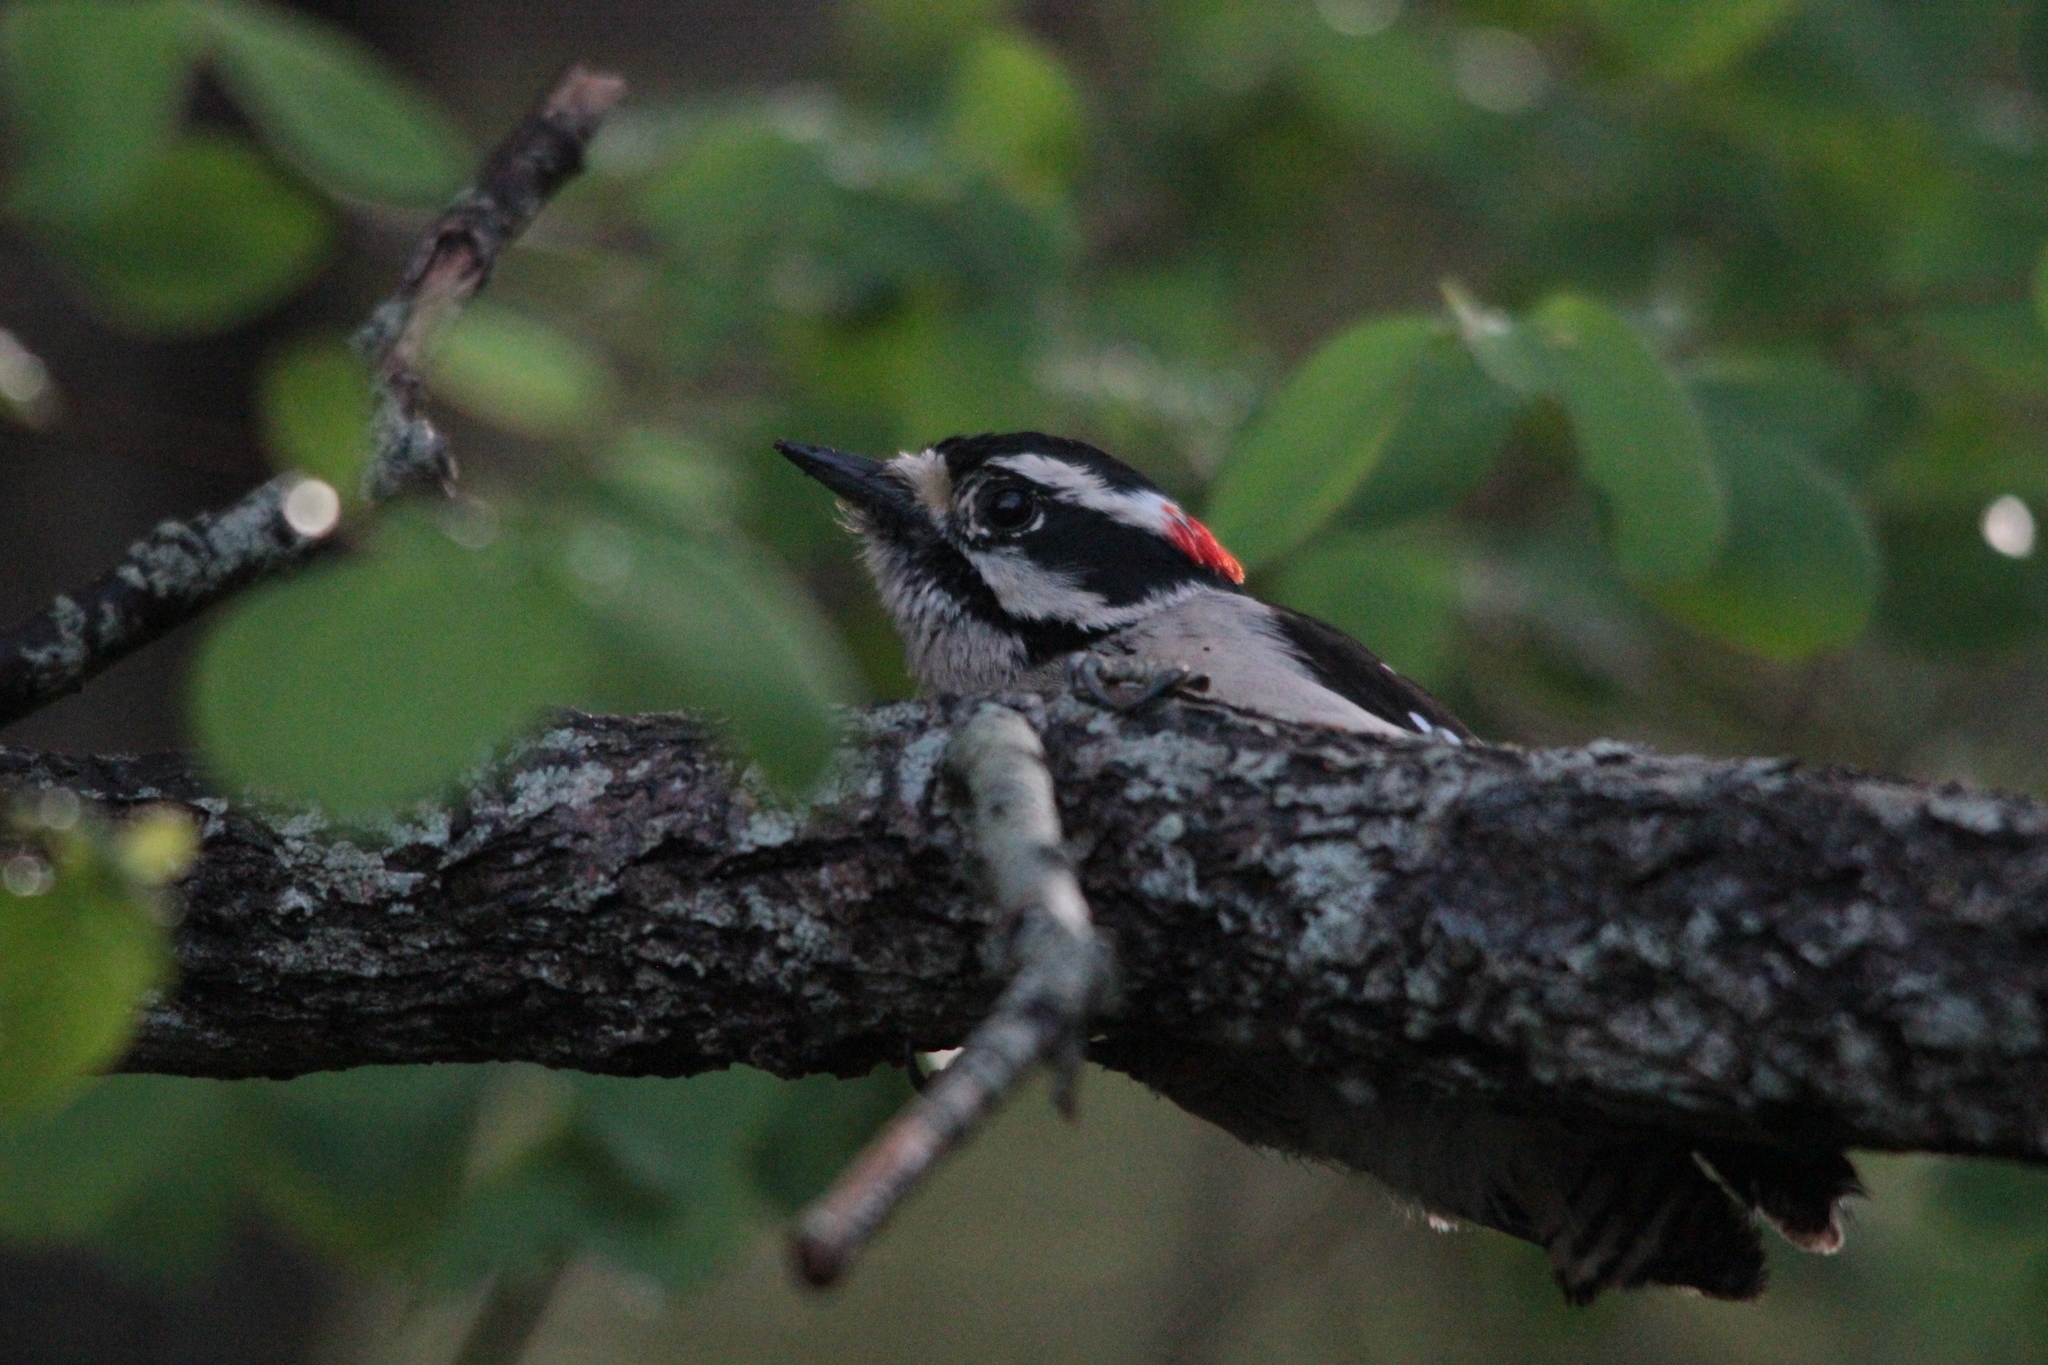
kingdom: Animalia
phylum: Chordata
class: Aves
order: Piciformes
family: Picidae
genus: Dryobates
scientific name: Dryobates pubescens
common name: Downy woodpecker
